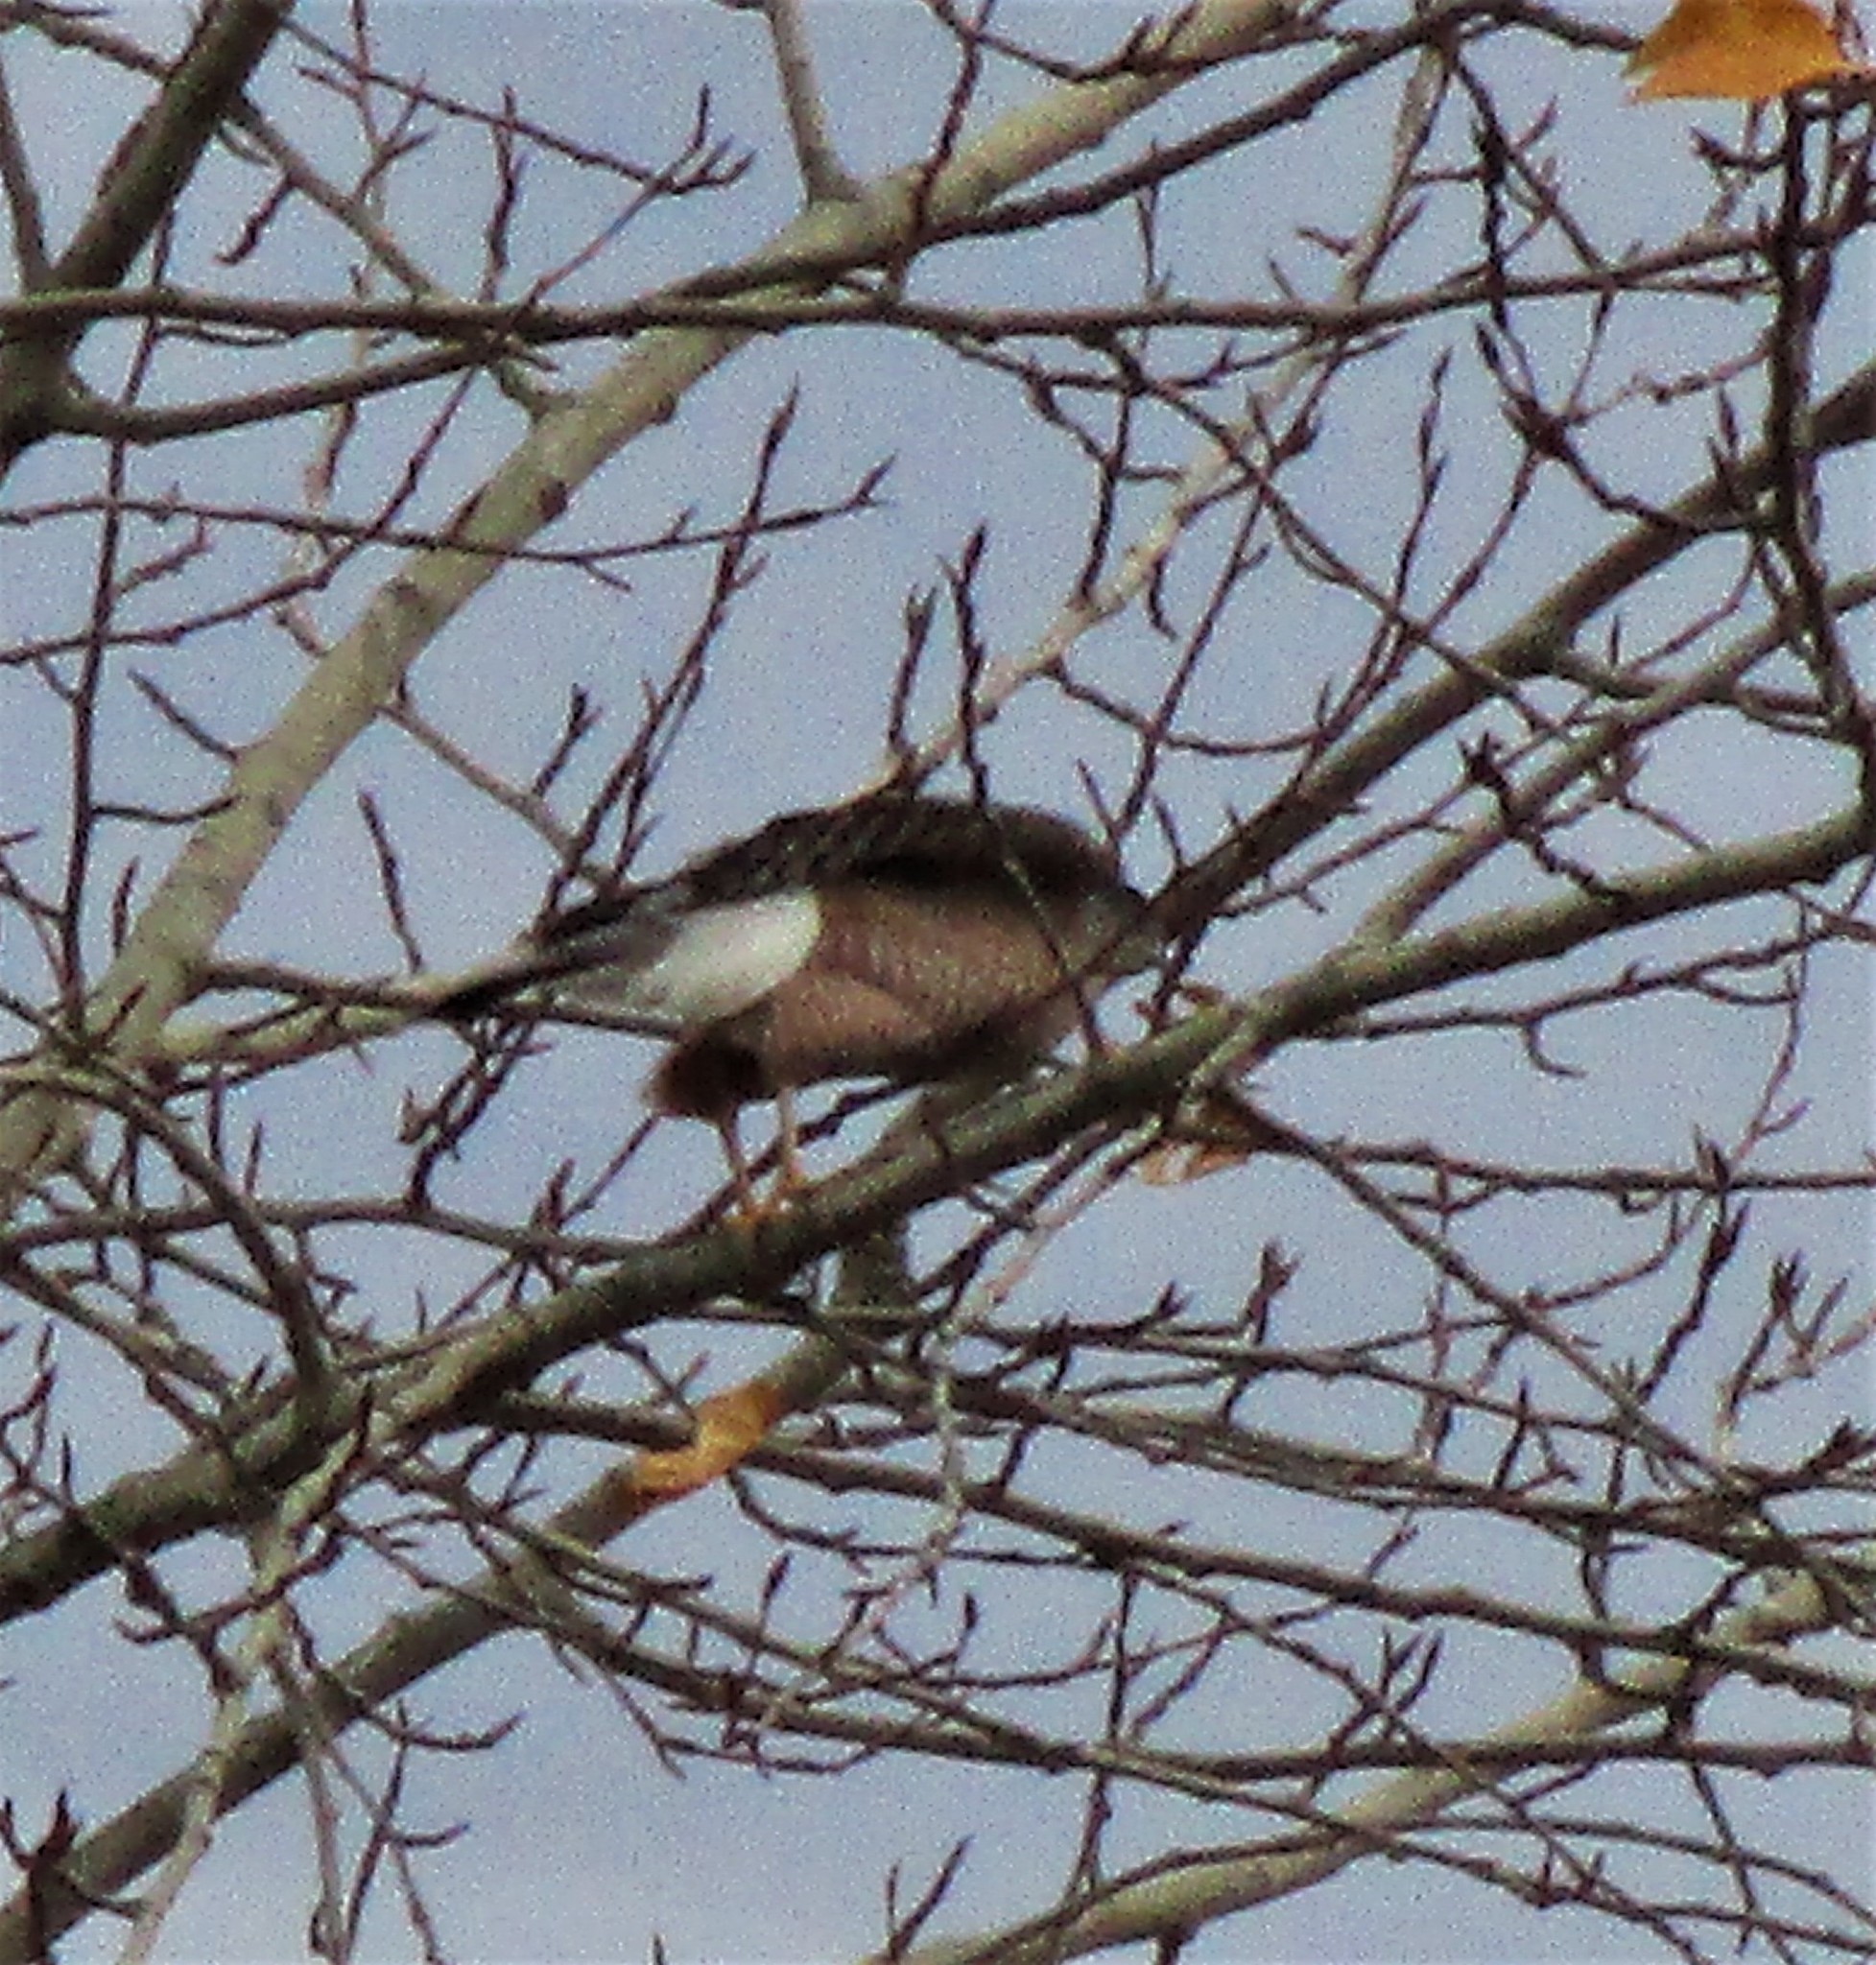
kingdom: Animalia
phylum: Chordata
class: Aves
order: Accipitriformes
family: Accipitridae
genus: Accipiter
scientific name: Accipiter cooperii
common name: Cooper's hawk
